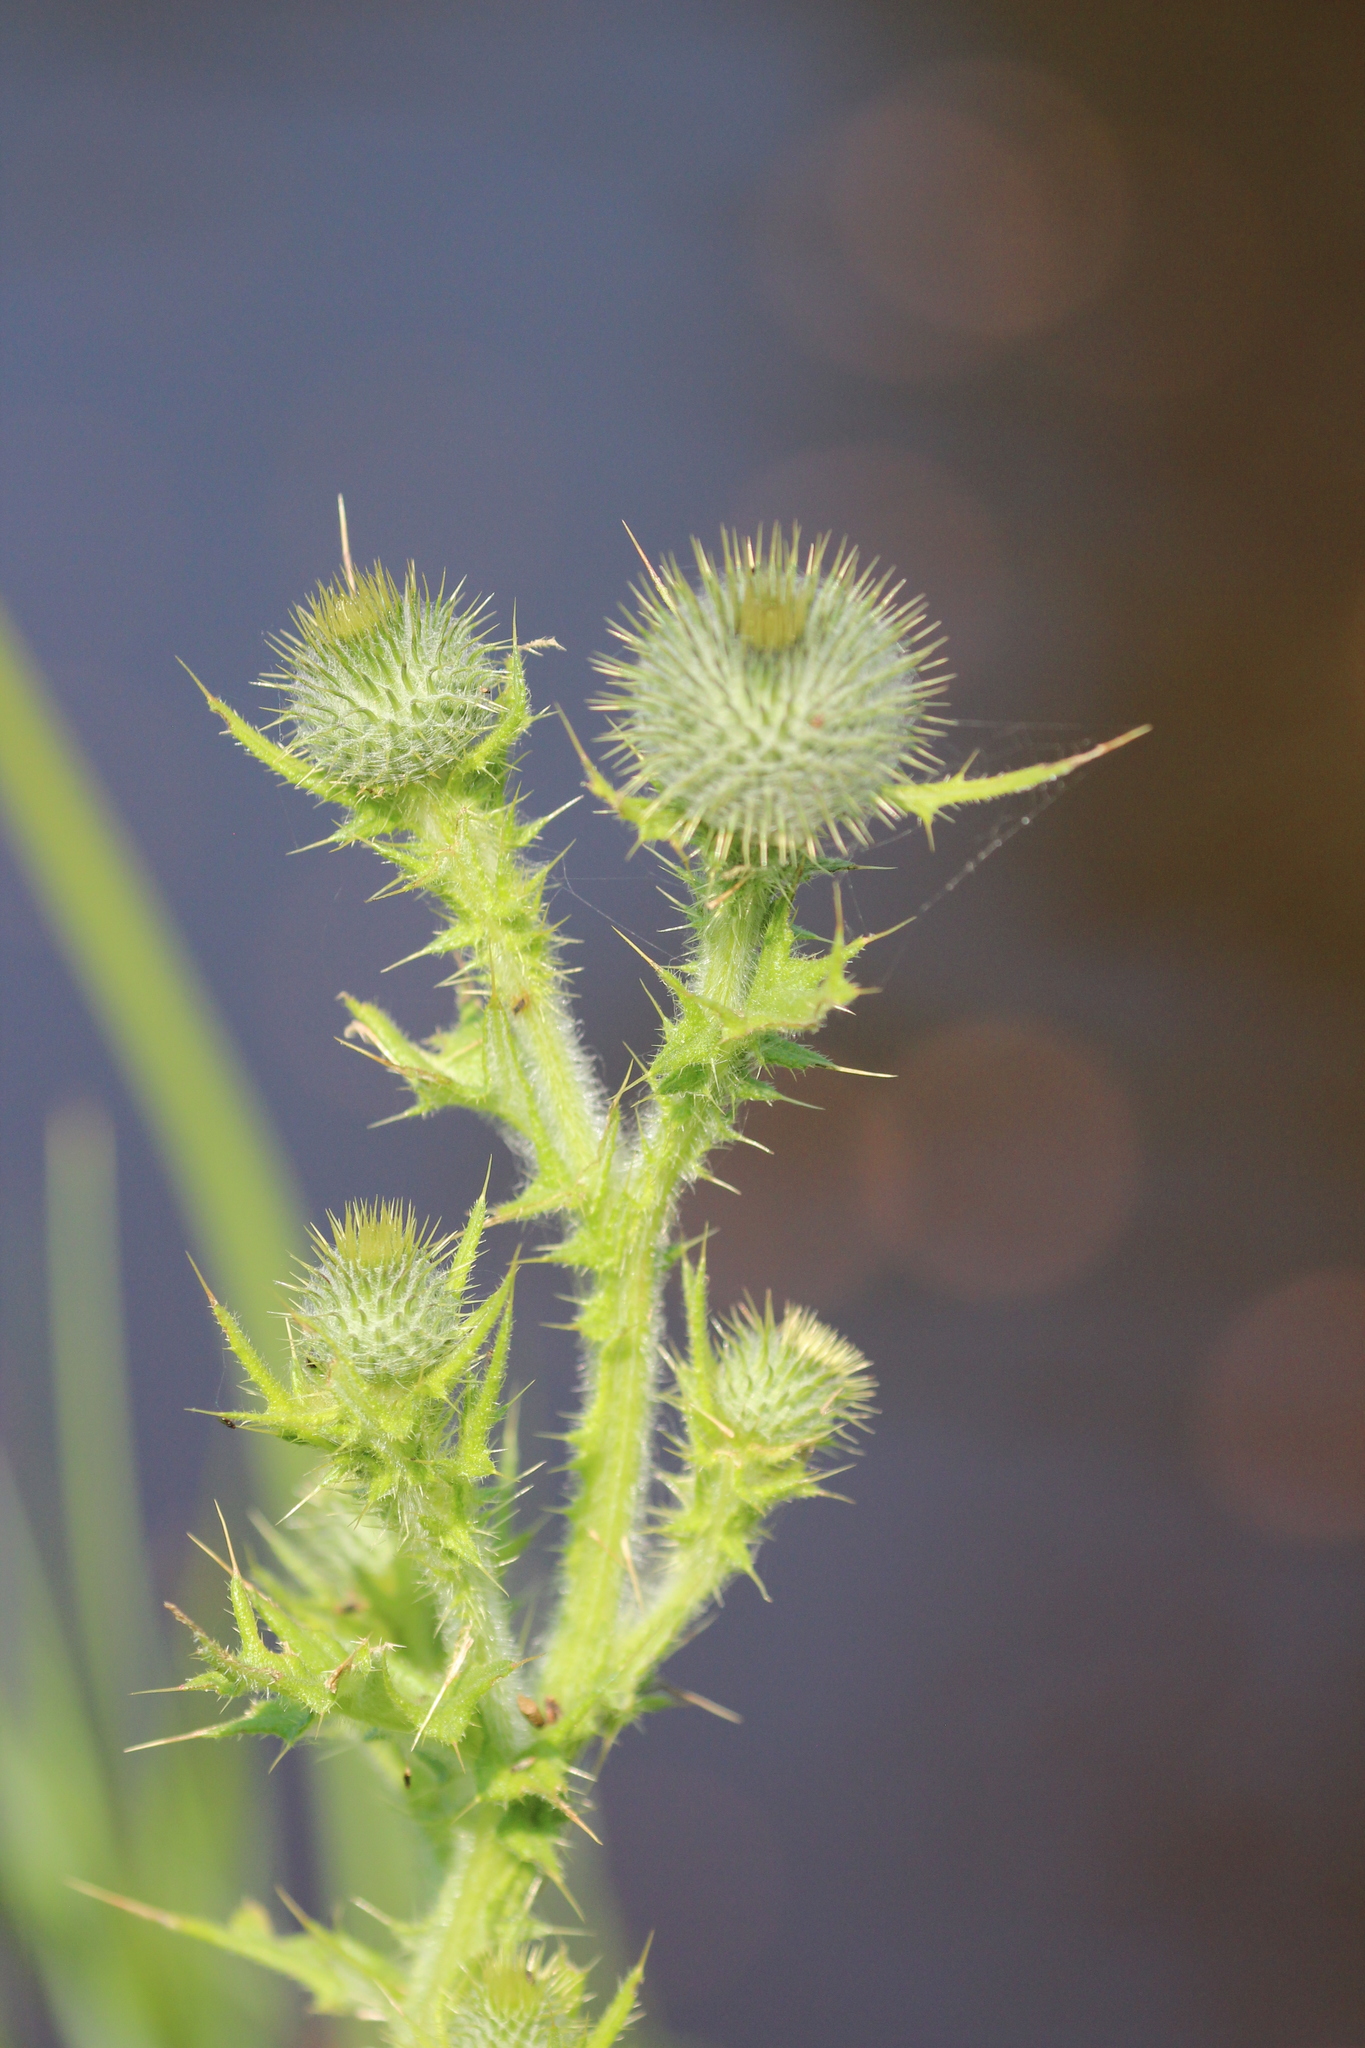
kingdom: Plantae
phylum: Tracheophyta
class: Magnoliopsida
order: Asterales
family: Asteraceae
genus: Cirsium
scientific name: Cirsium vulgare
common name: Bull thistle
